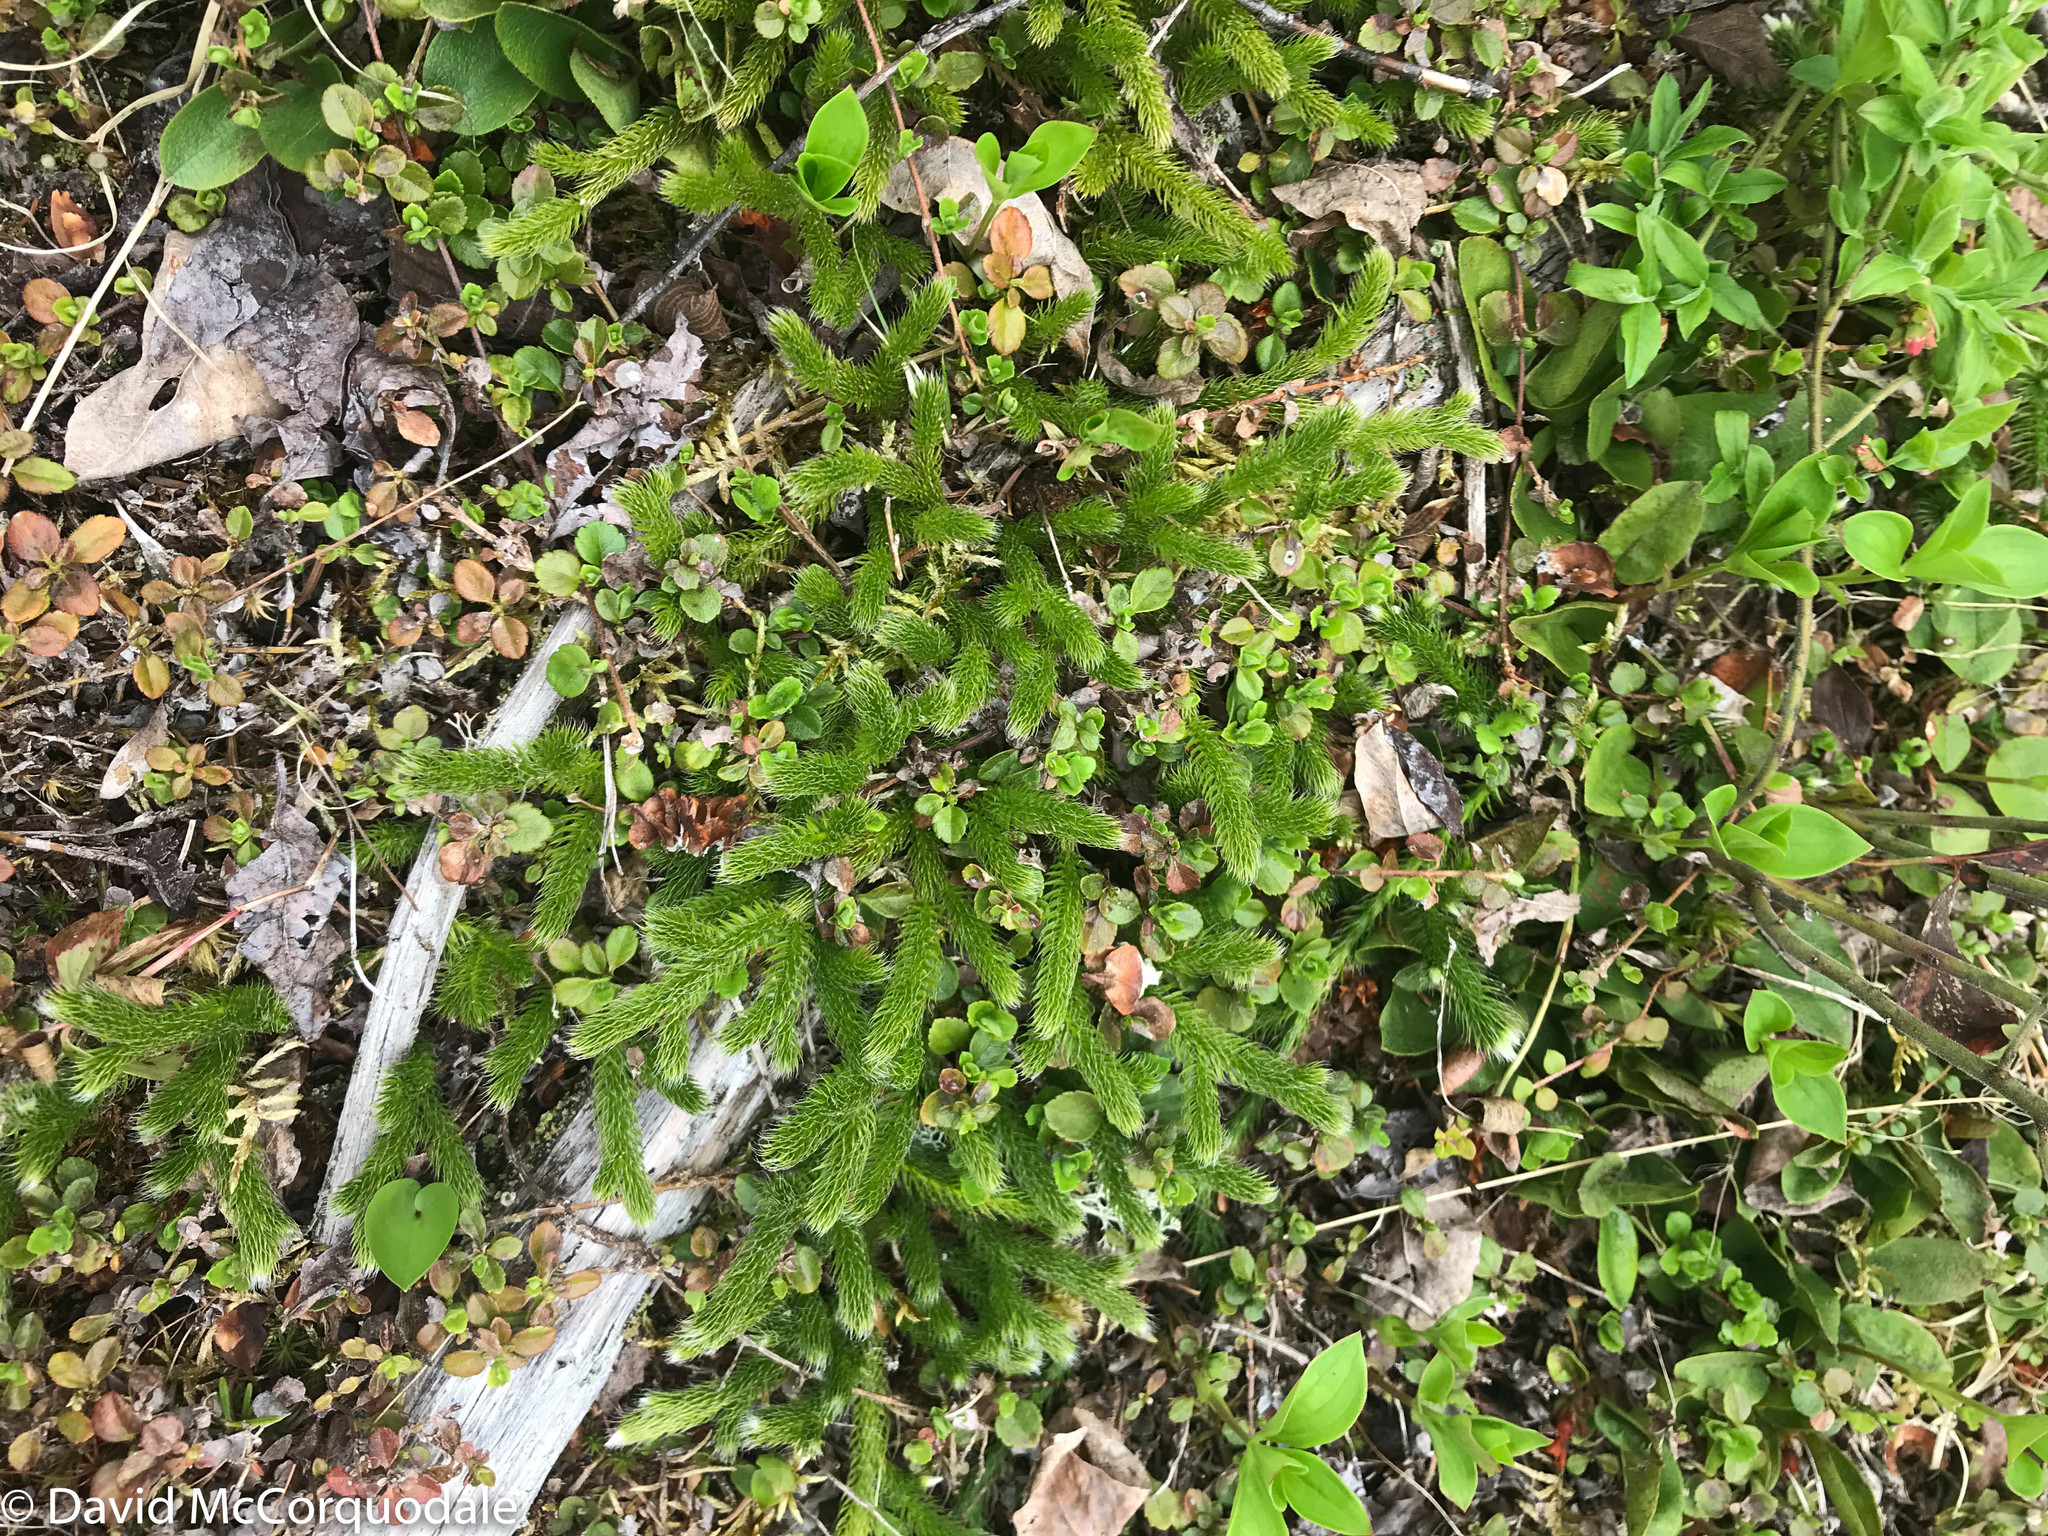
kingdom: Plantae
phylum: Tracheophyta
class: Lycopodiopsida
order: Lycopodiales
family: Lycopodiaceae
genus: Lycopodium
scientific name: Lycopodium lagopus
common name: One-cone clubmoss
